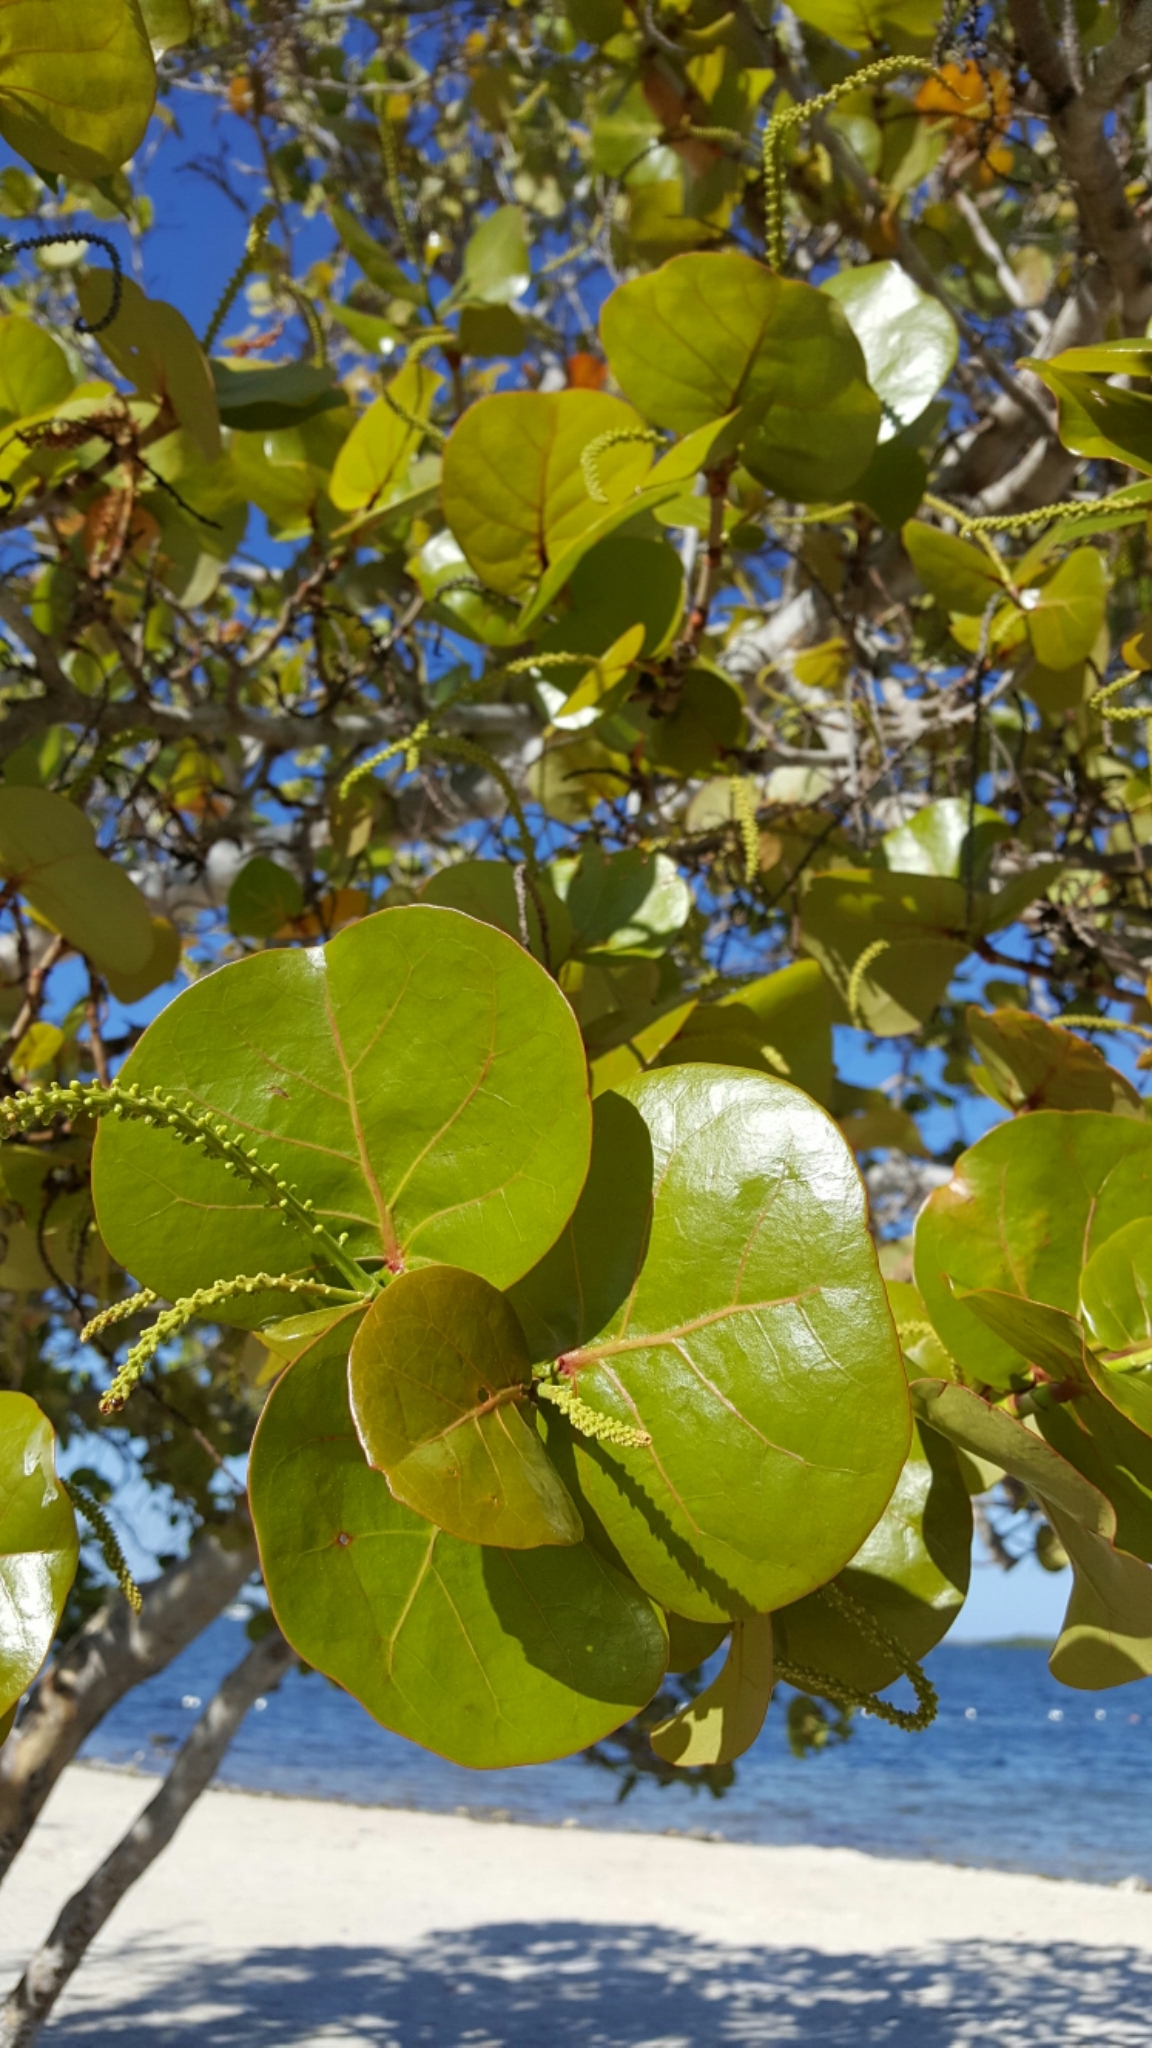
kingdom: Plantae
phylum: Tracheophyta
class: Magnoliopsida
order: Caryophyllales
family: Polygonaceae
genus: Coccoloba
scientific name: Coccoloba uvifera
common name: Seagrape
